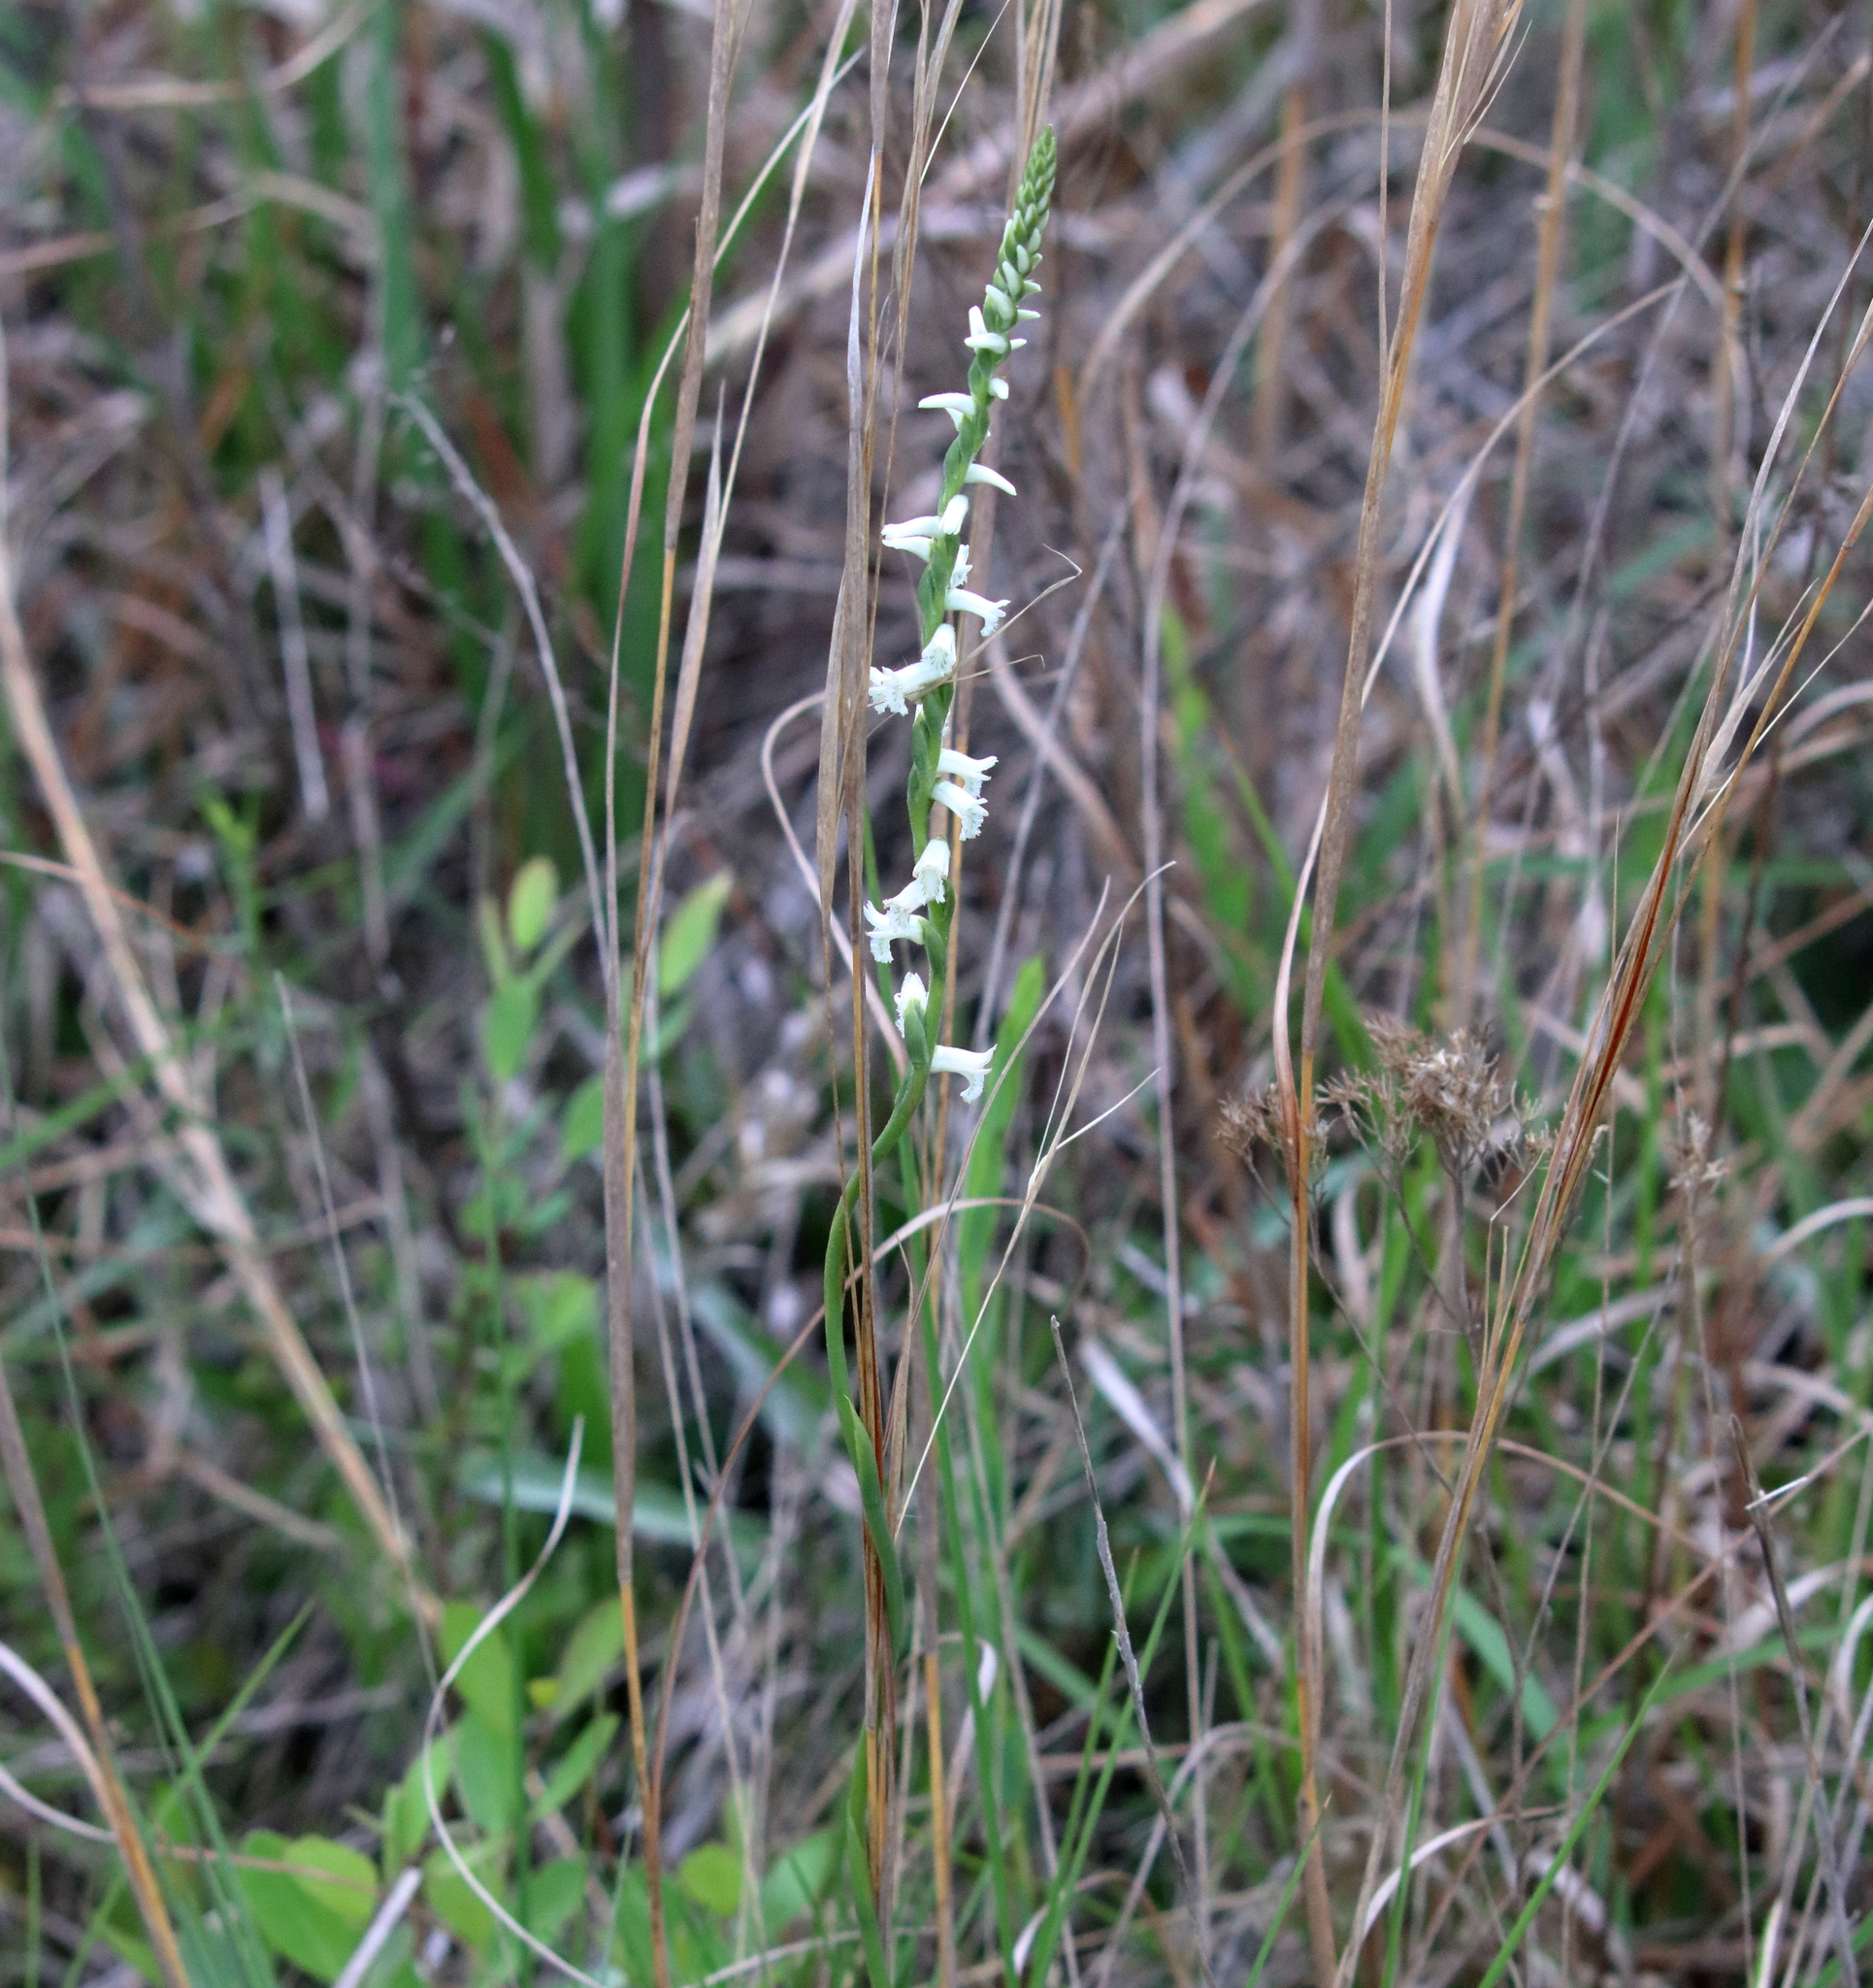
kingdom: Plantae
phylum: Tracheophyta
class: Liliopsida
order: Asparagales
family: Orchidaceae
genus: Spiranthes
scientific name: Spiranthes praecox
